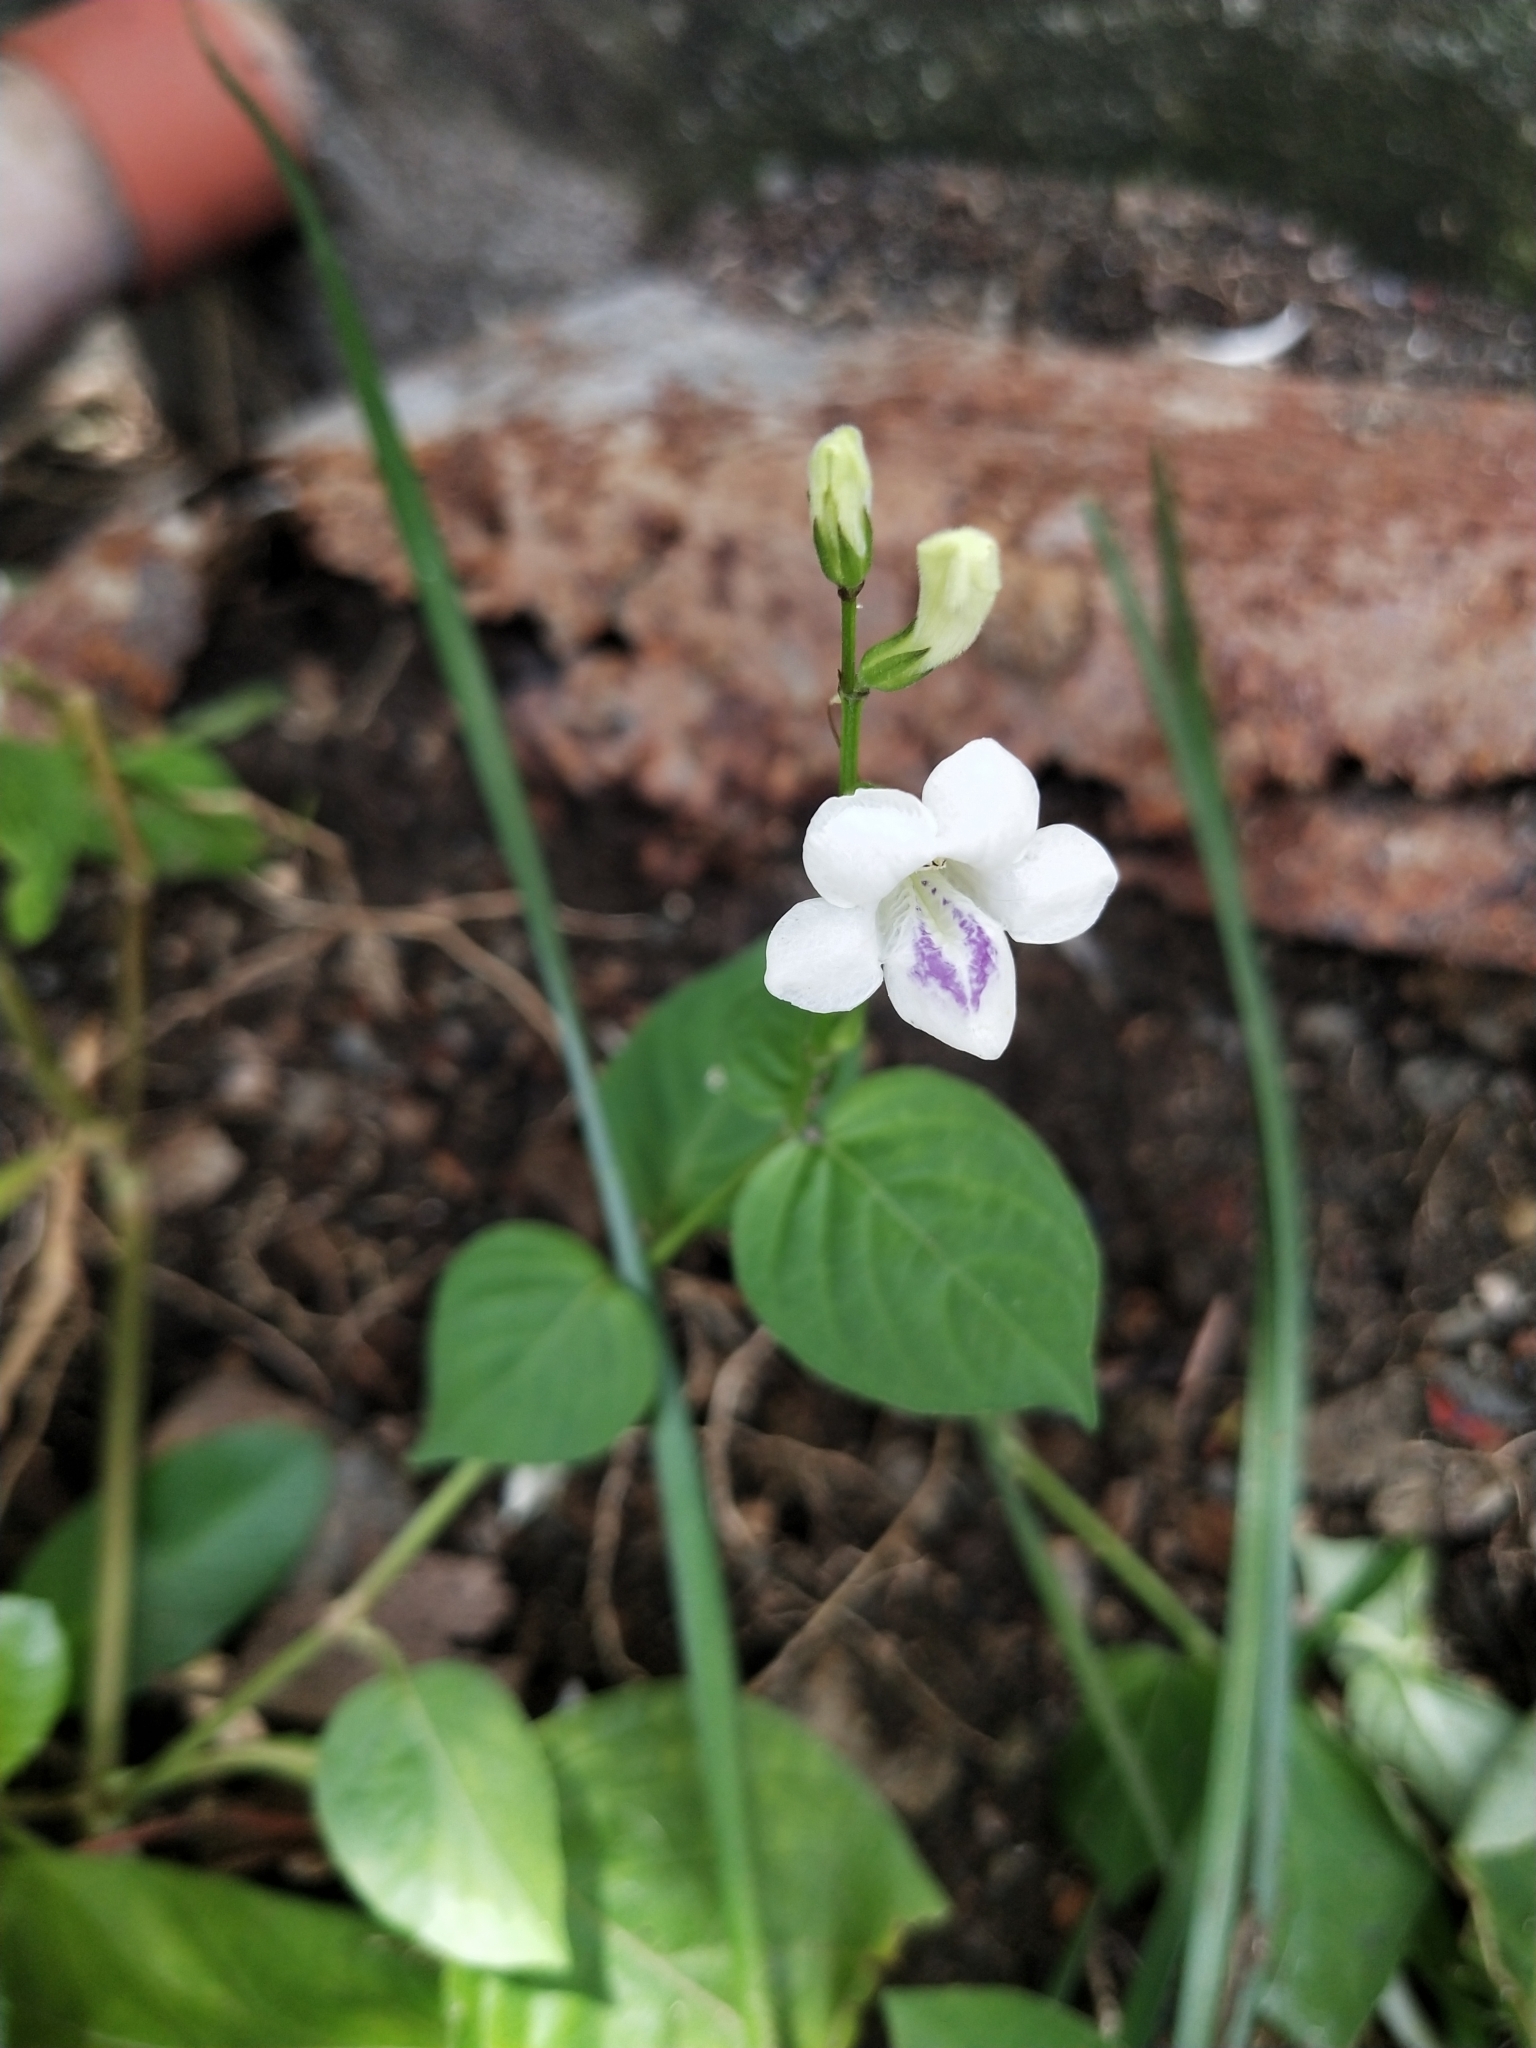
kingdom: Plantae
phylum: Tracheophyta
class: Magnoliopsida
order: Lamiales
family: Acanthaceae
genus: Asystasia
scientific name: Asystasia intrusa
